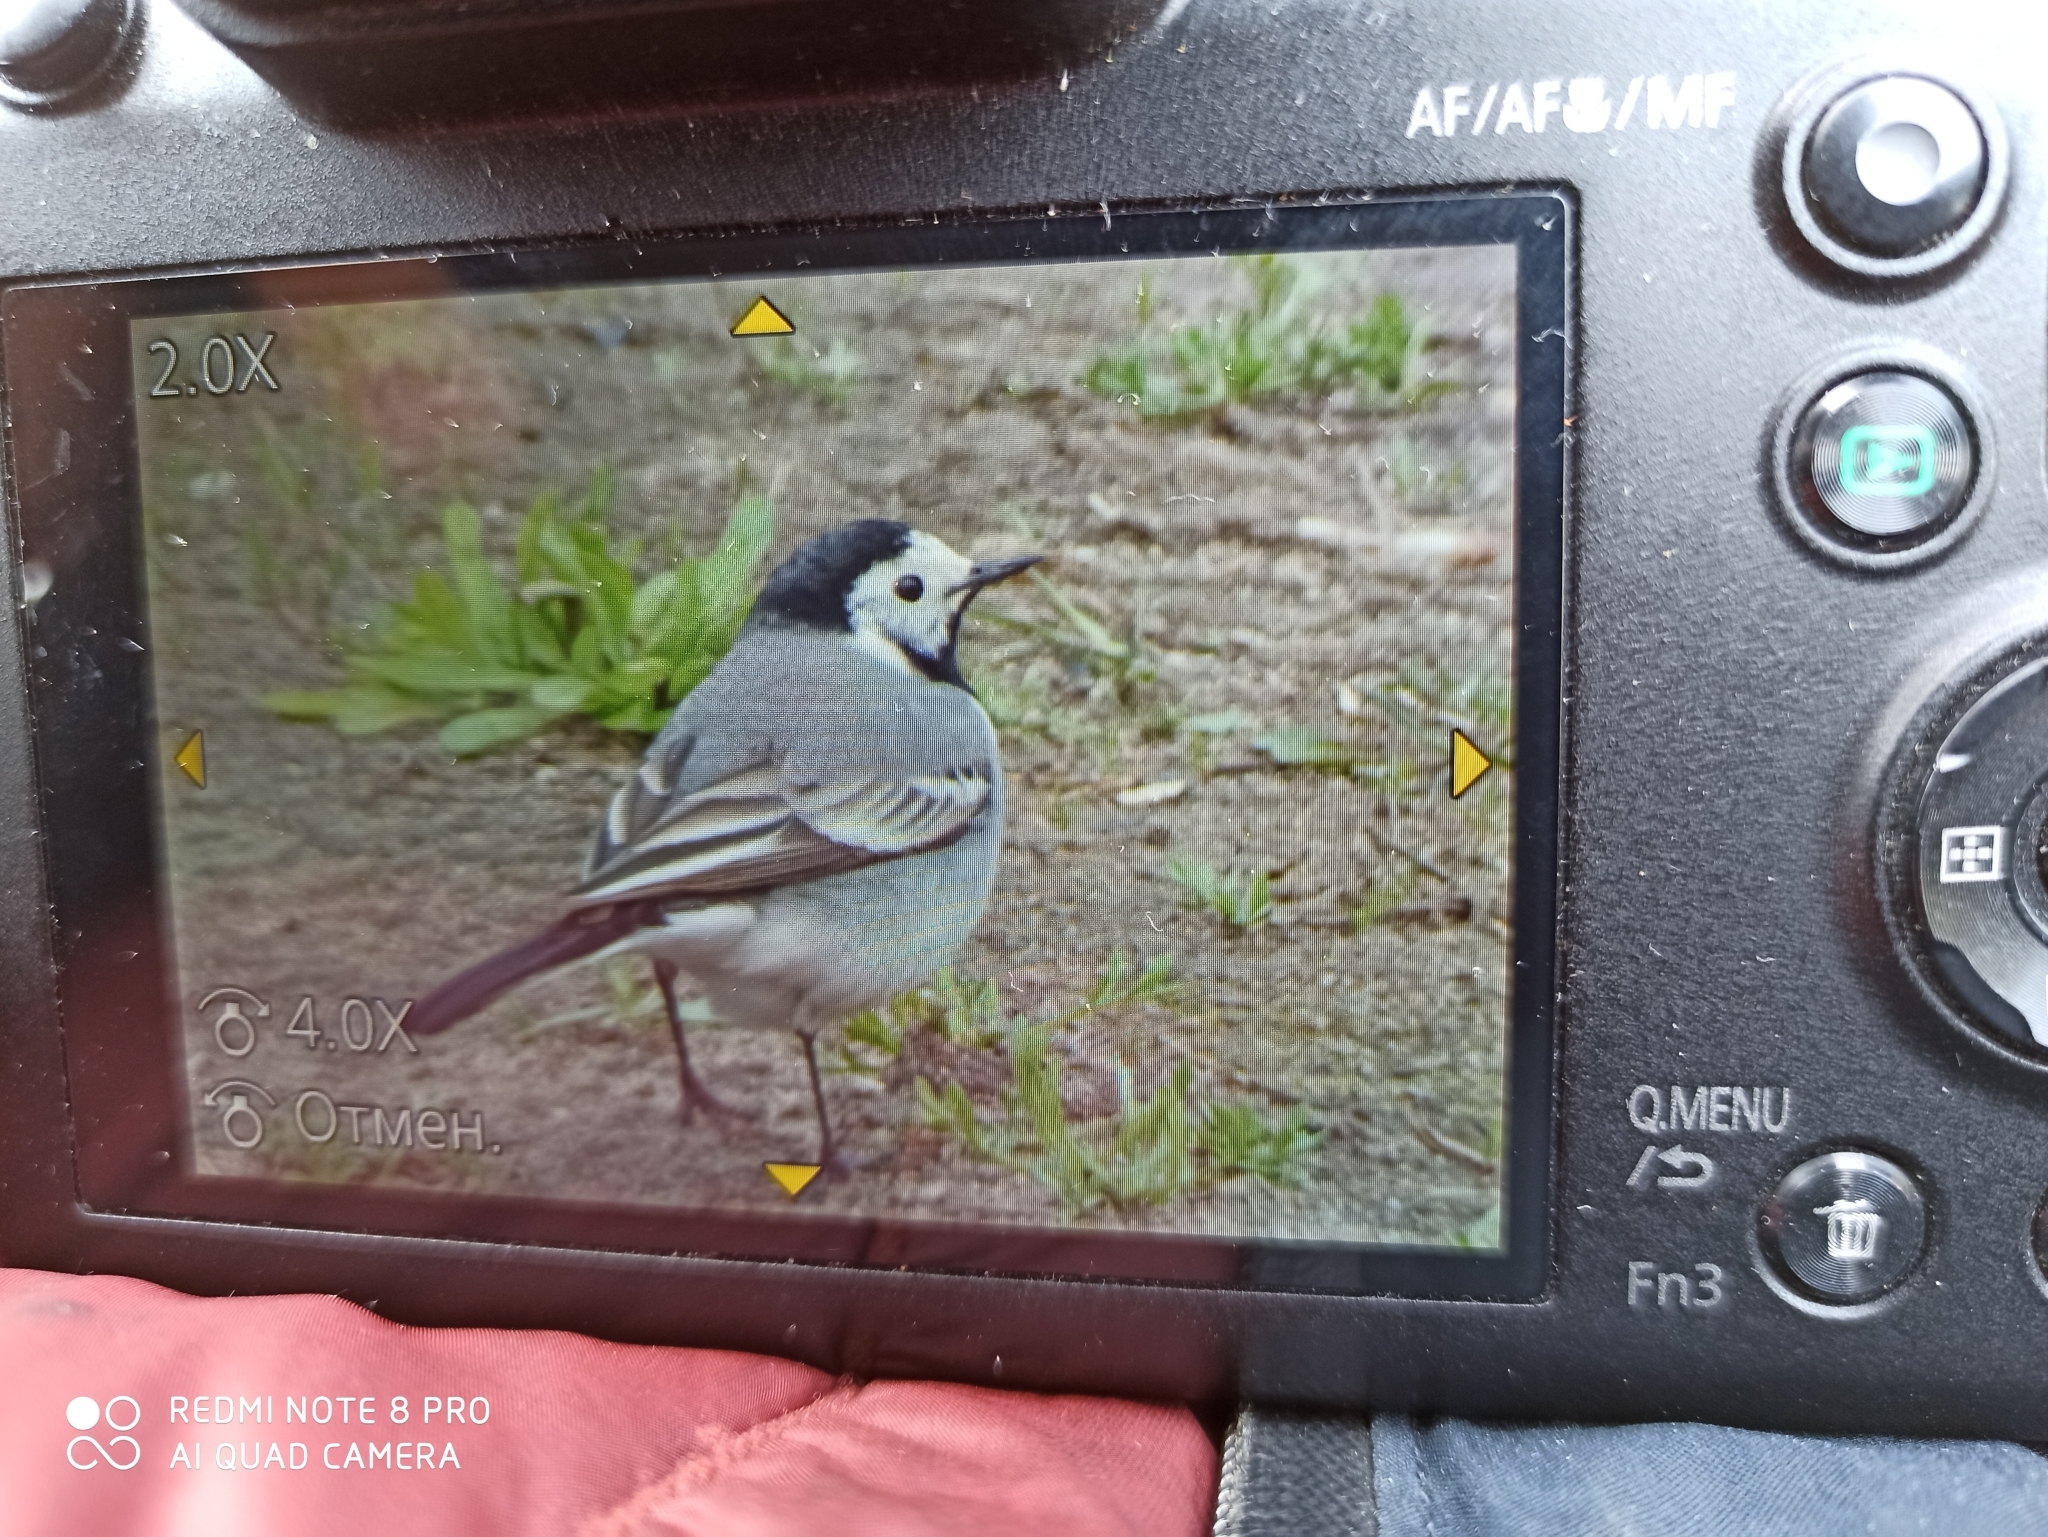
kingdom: Animalia
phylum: Chordata
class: Aves
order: Passeriformes
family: Motacillidae
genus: Motacilla
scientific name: Motacilla alba
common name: White wagtail
